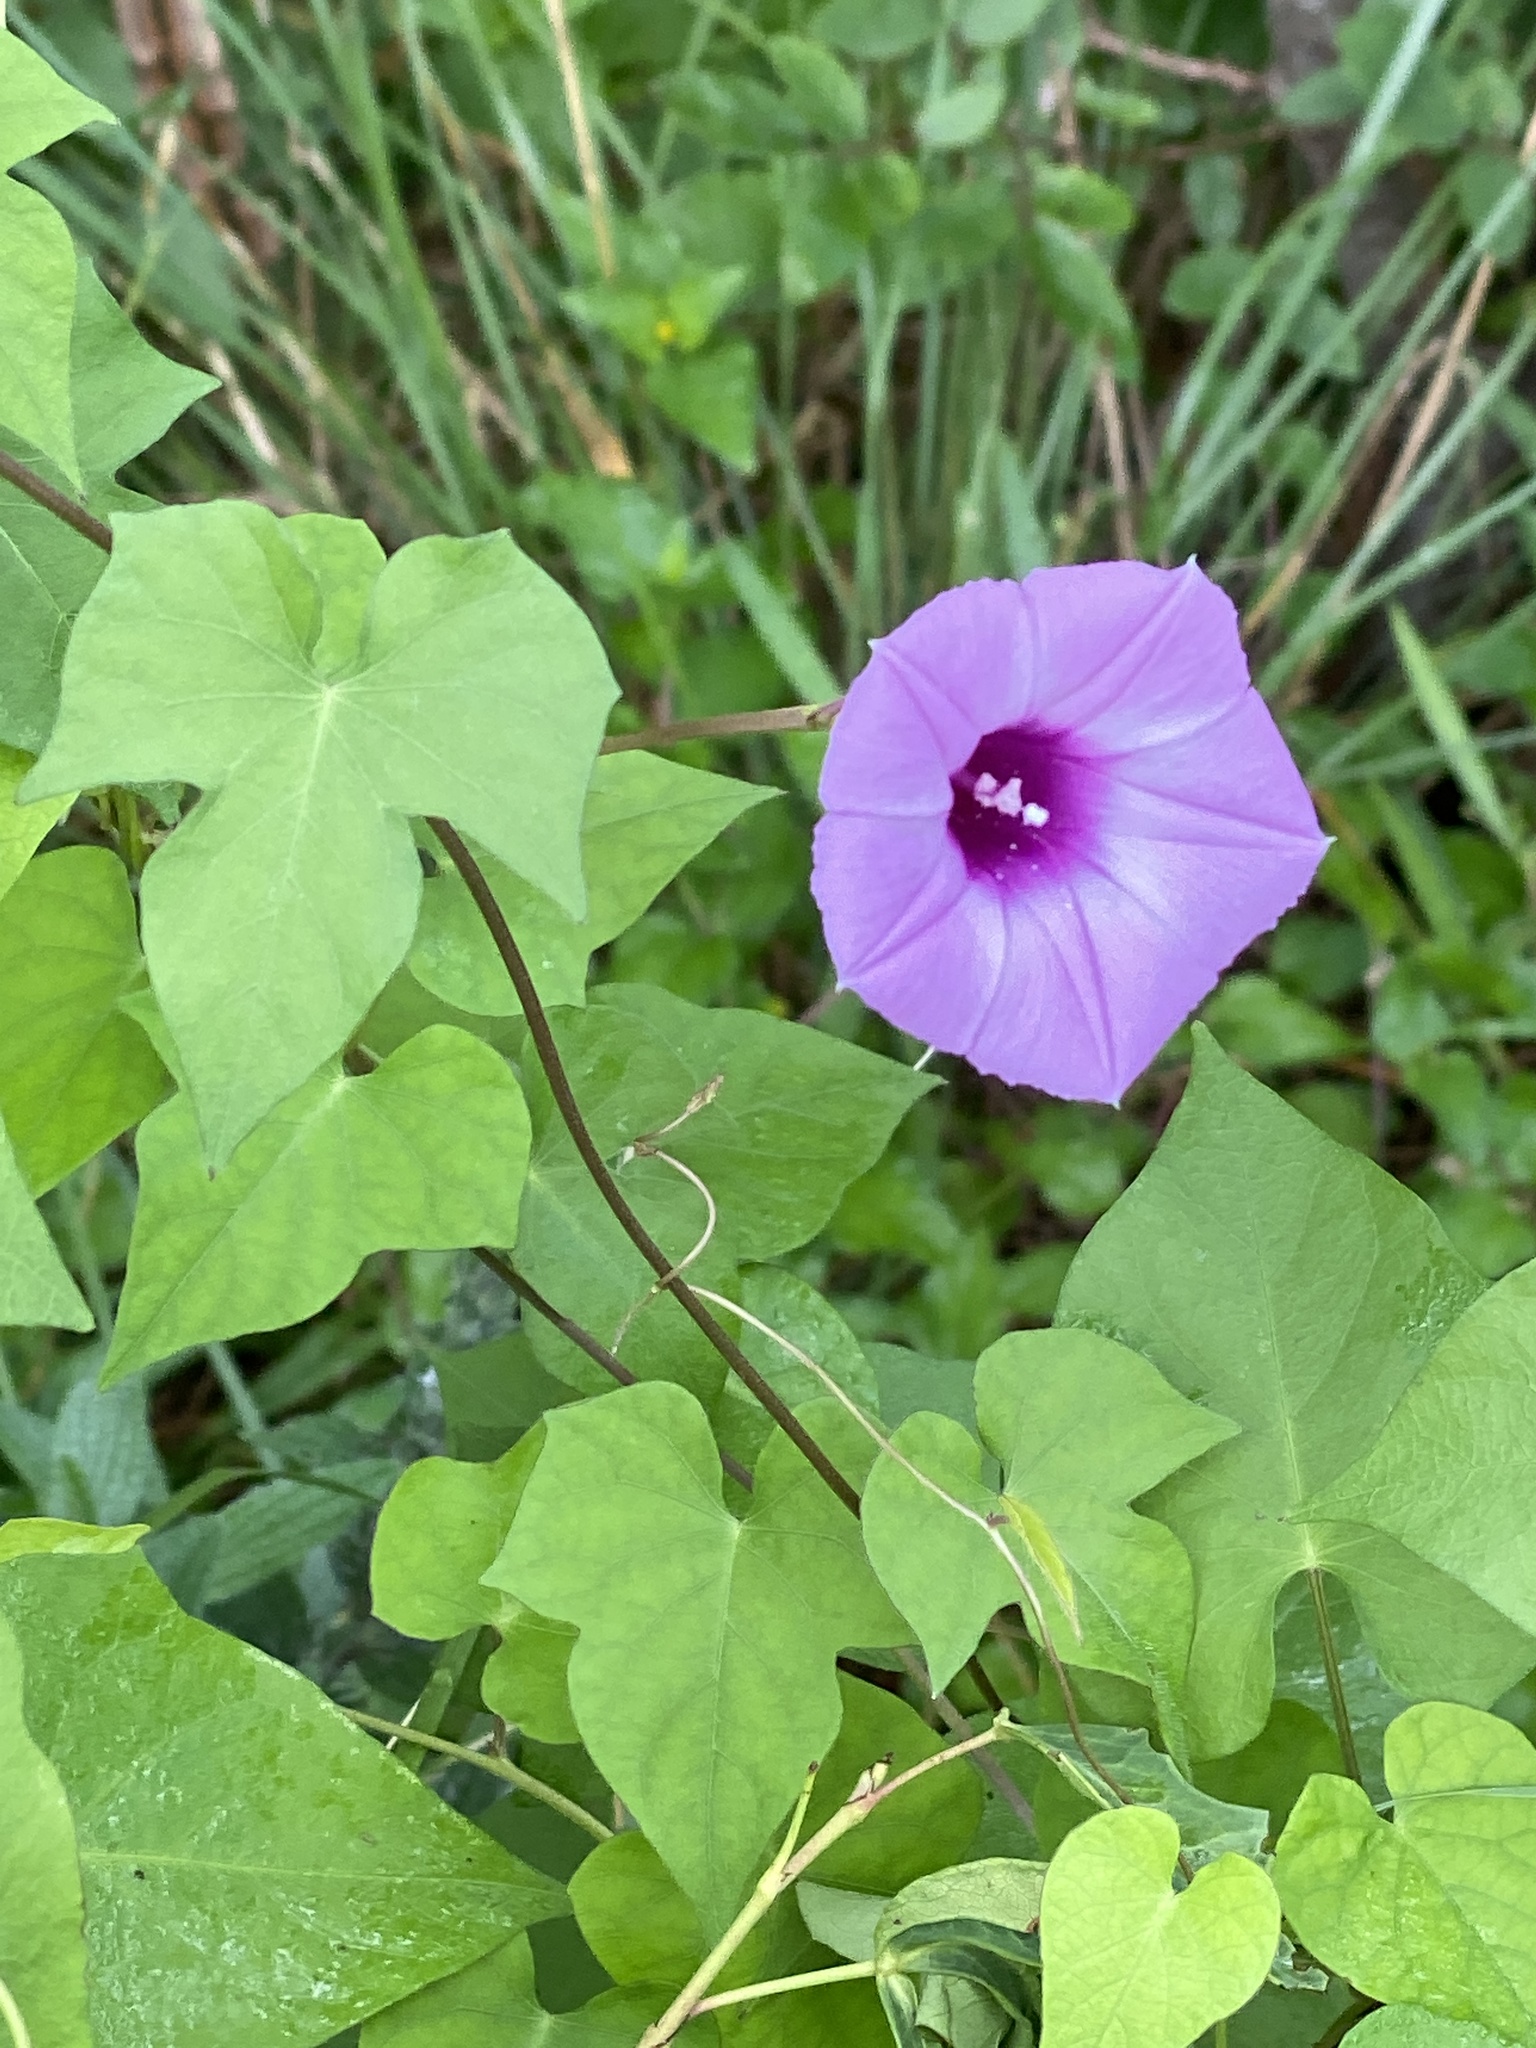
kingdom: Plantae
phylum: Tracheophyta
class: Magnoliopsida
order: Solanales
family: Convolvulaceae
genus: Ipomoea
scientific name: Ipomoea cordatotriloba
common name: Cotton morning glory
